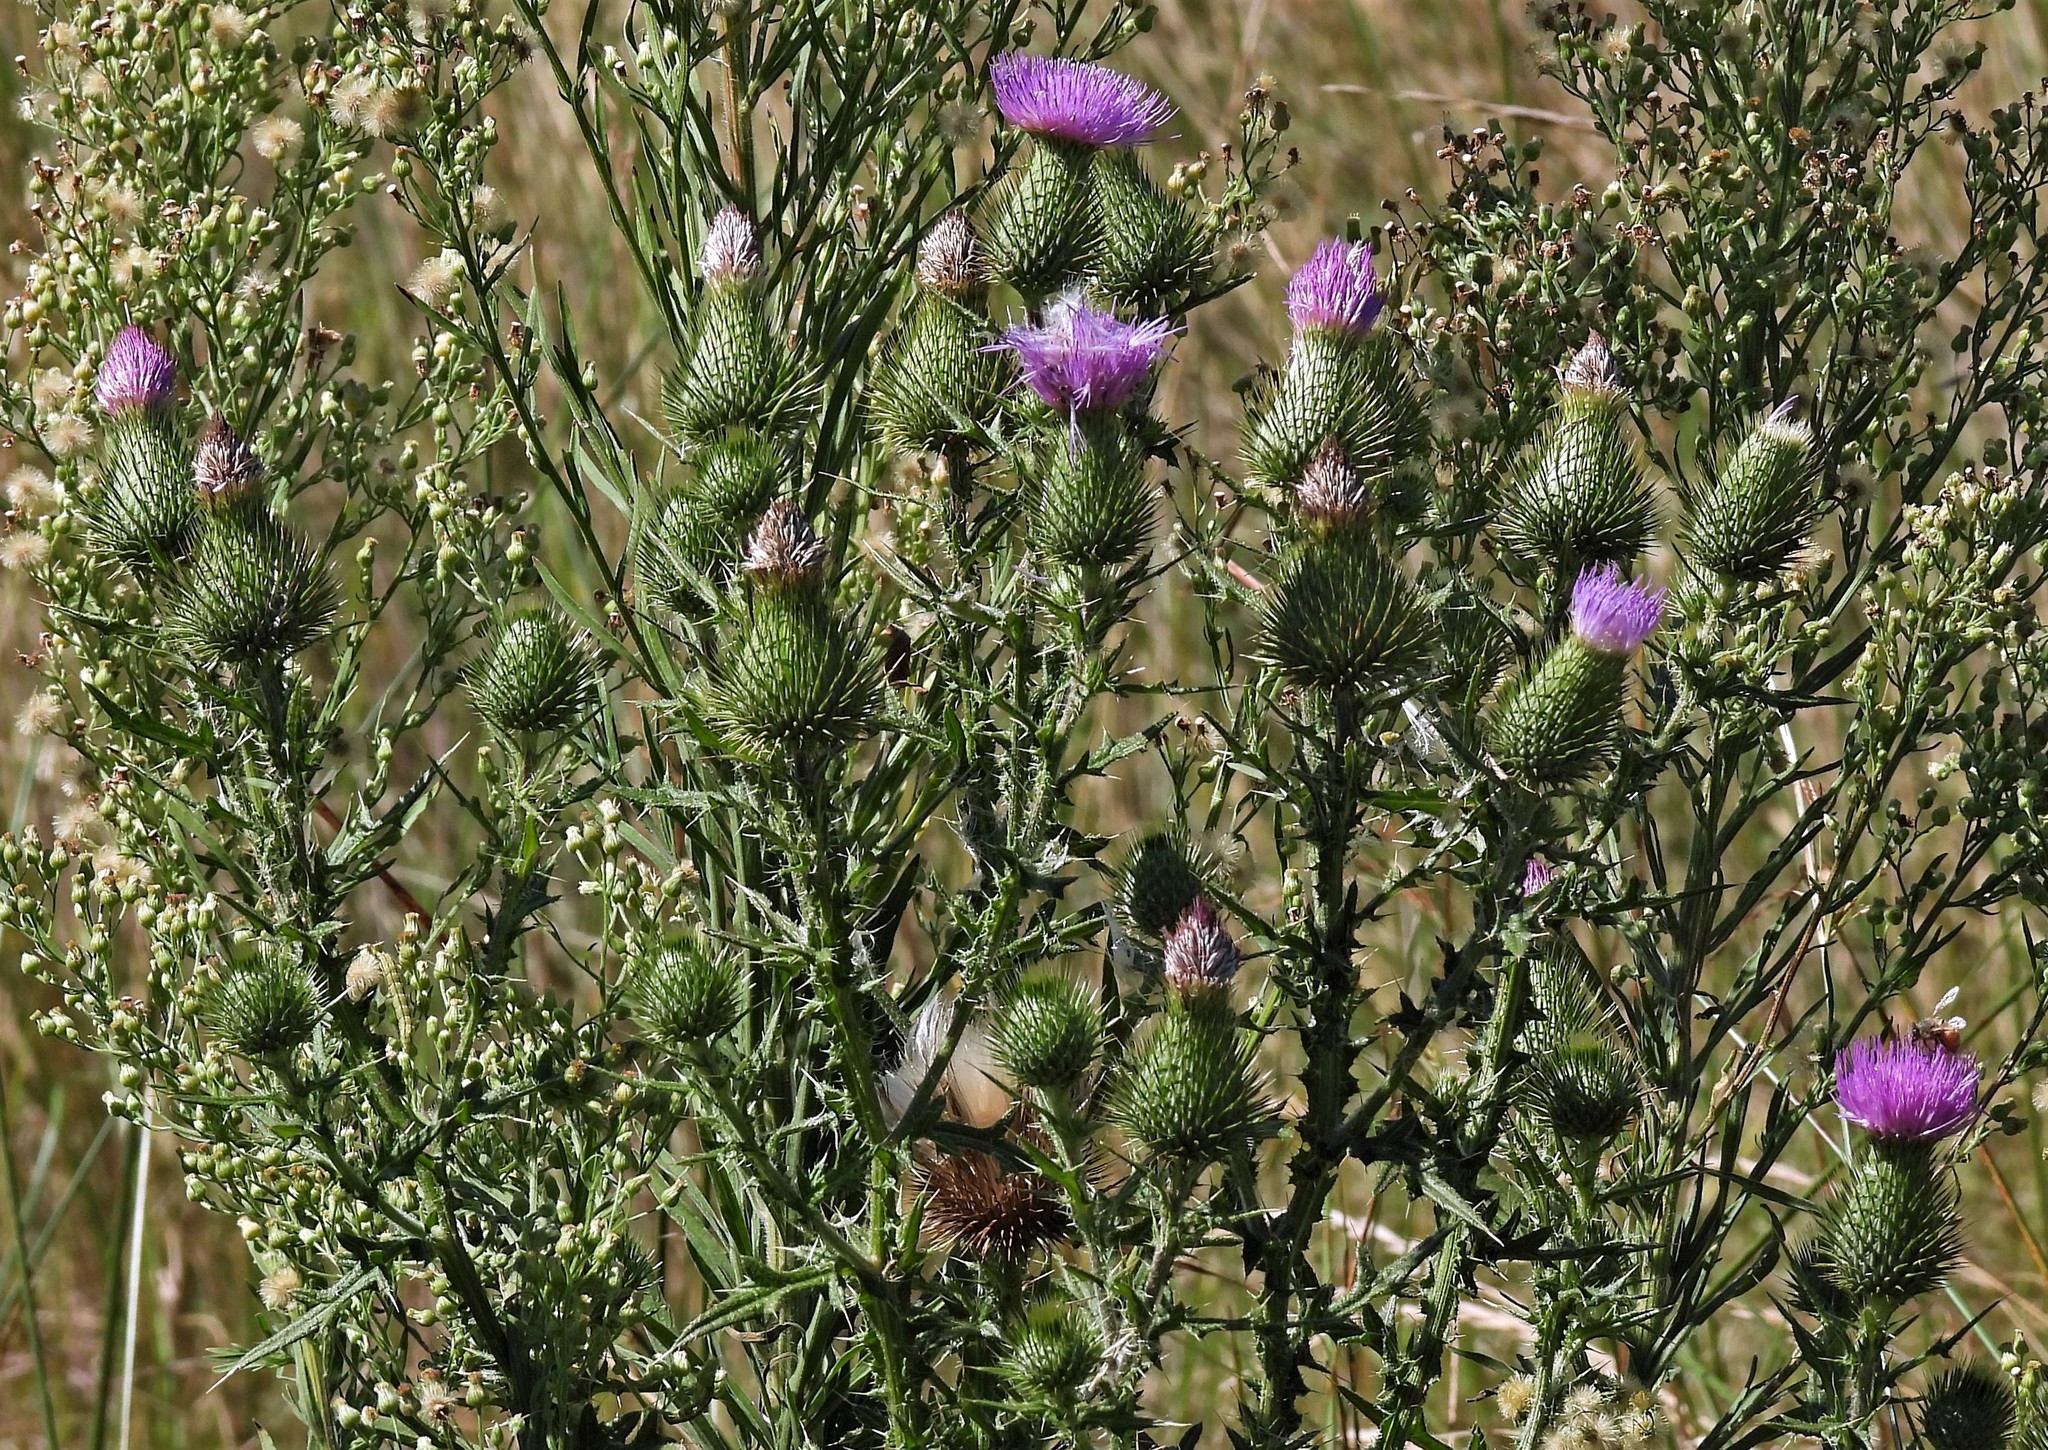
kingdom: Plantae
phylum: Tracheophyta
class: Magnoliopsida
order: Asterales
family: Asteraceae
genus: Cirsium
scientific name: Cirsium vulgare
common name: Bull thistle
